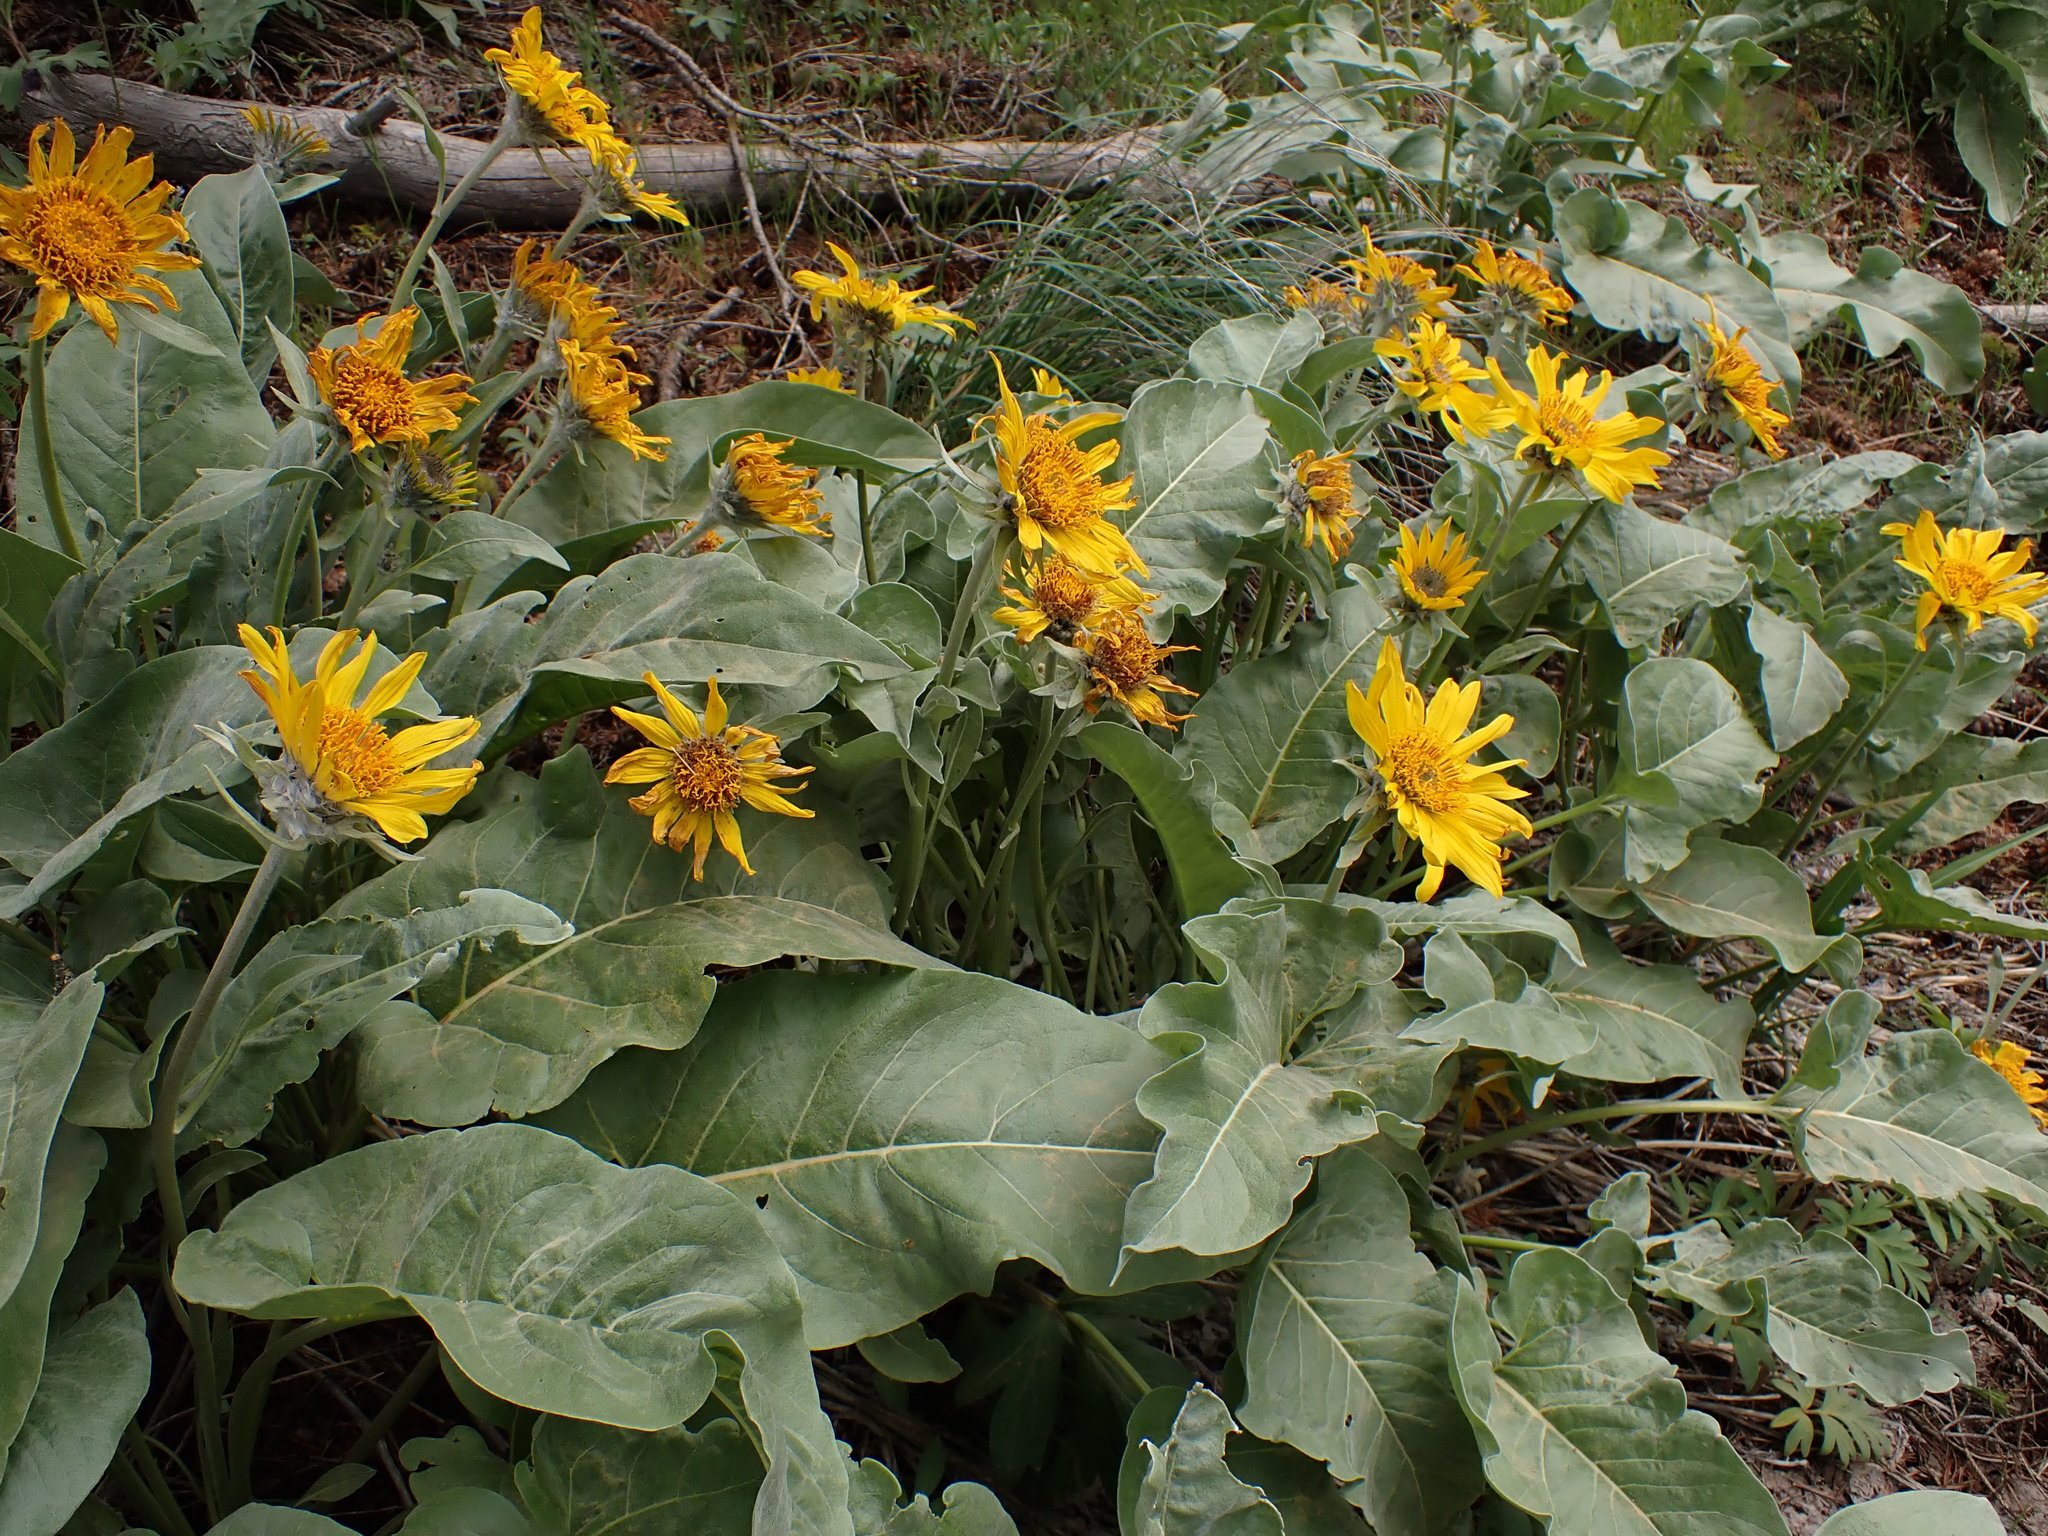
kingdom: Plantae
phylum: Tracheophyta
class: Magnoliopsida
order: Asterales
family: Asteraceae
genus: Wyethia
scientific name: Wyethia sagittata
